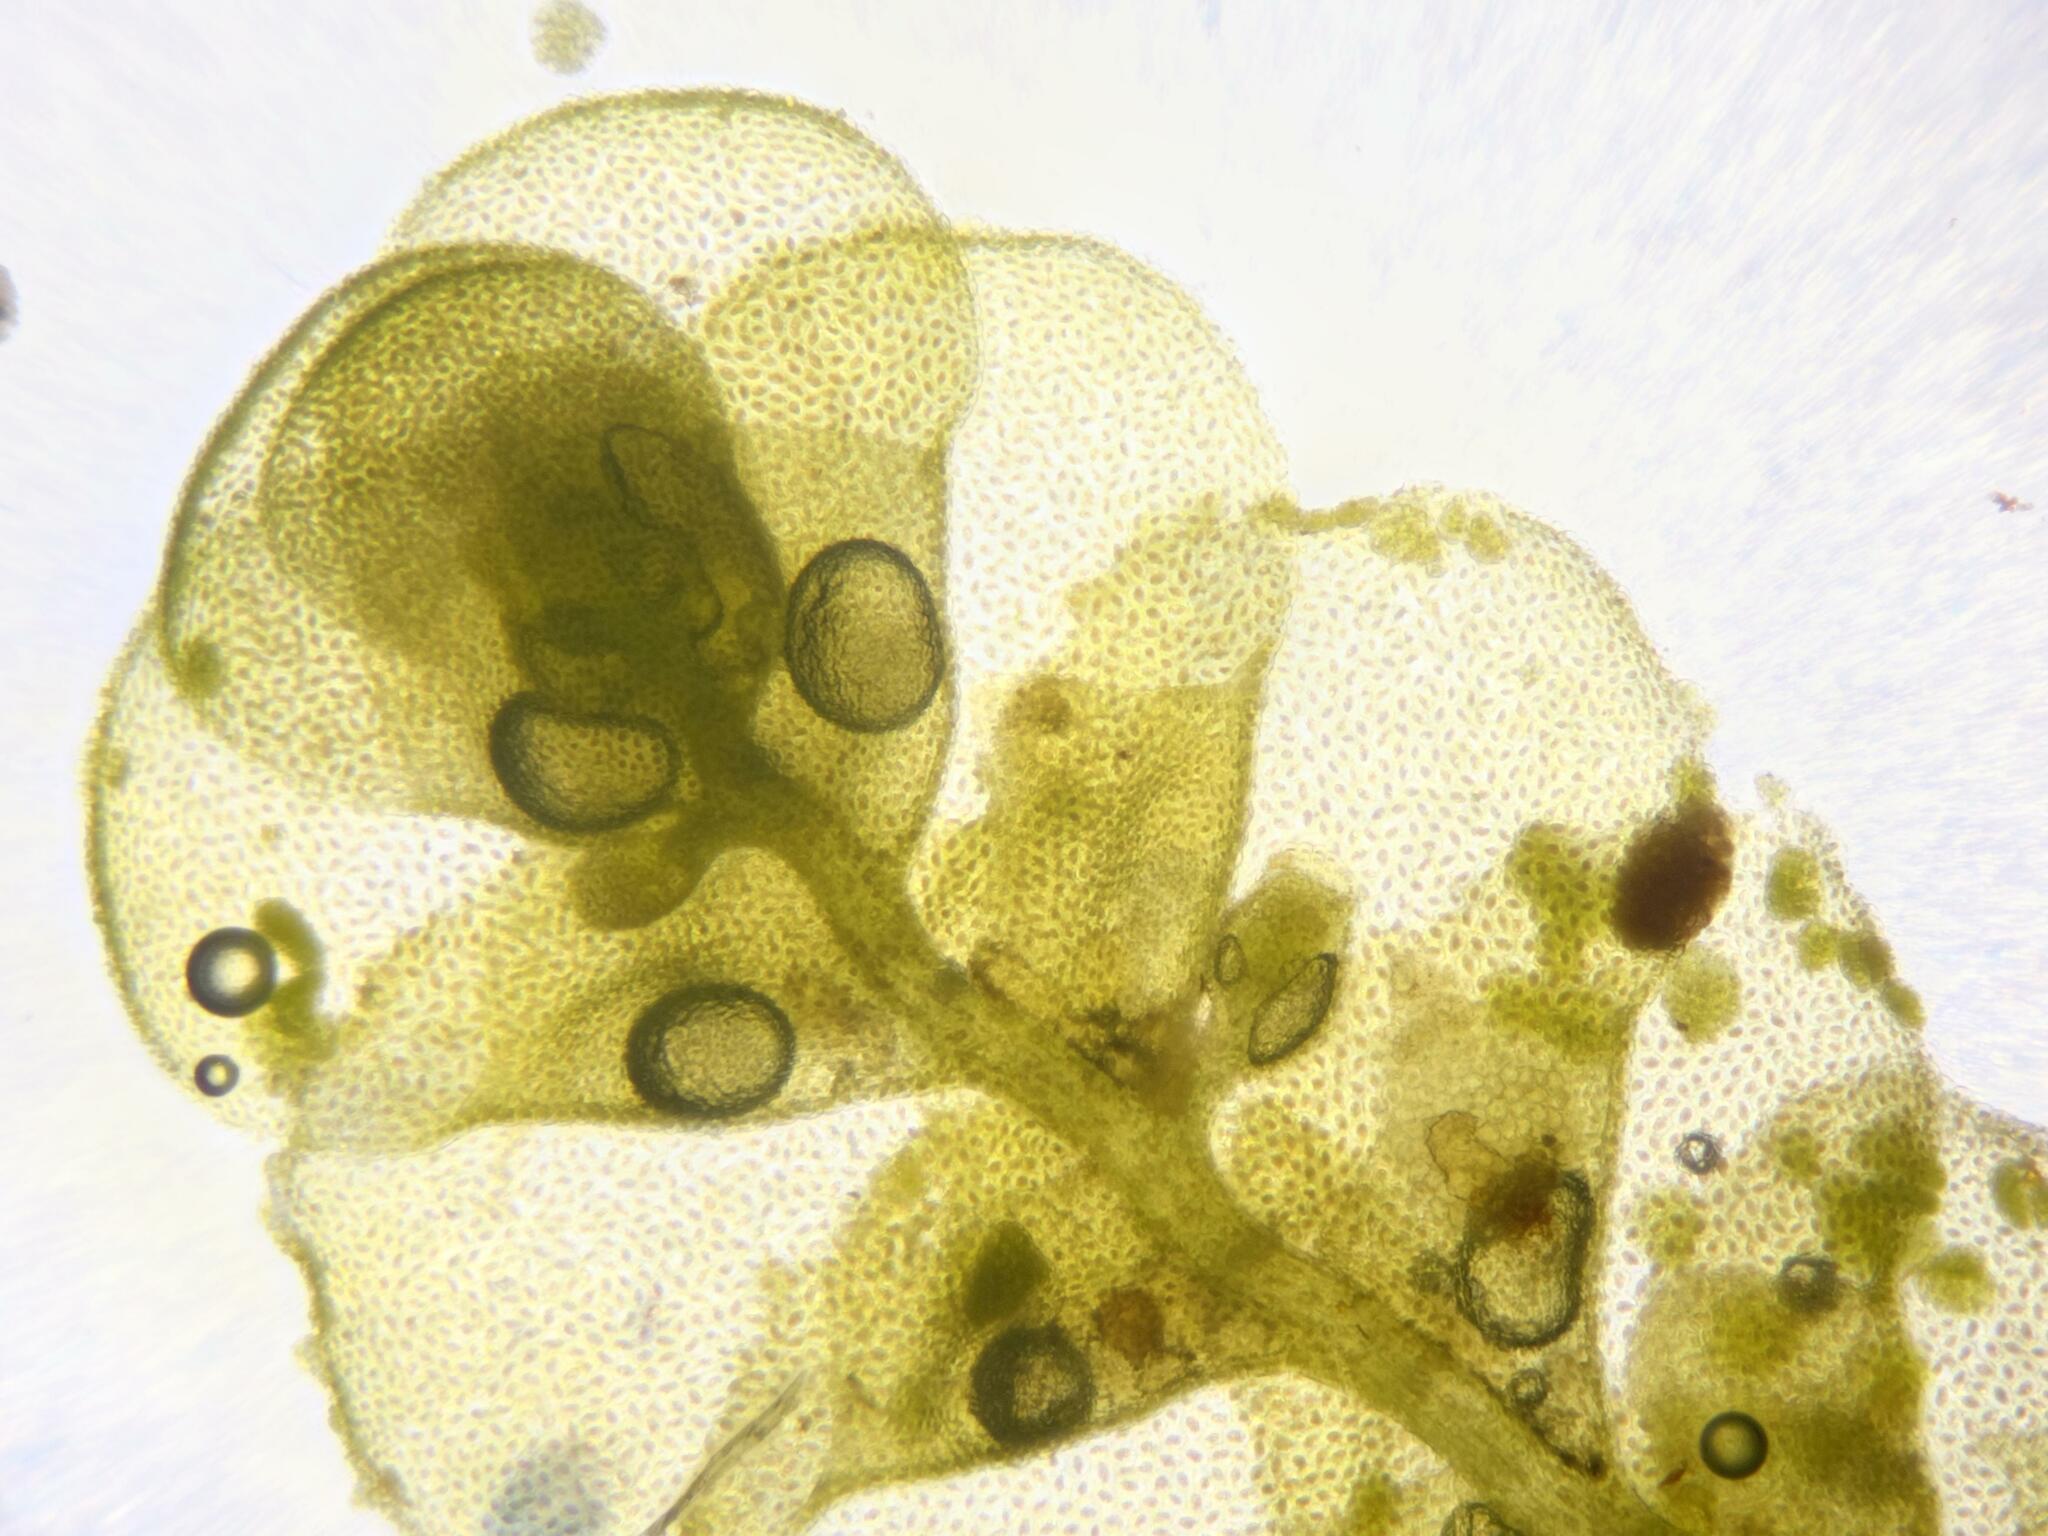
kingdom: Plantae
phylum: Marchantiophyta
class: Jungermanniopsida
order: Porellales
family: Radulaceae
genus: Radula
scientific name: Radula complanata
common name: Flat-leaved scalewort
